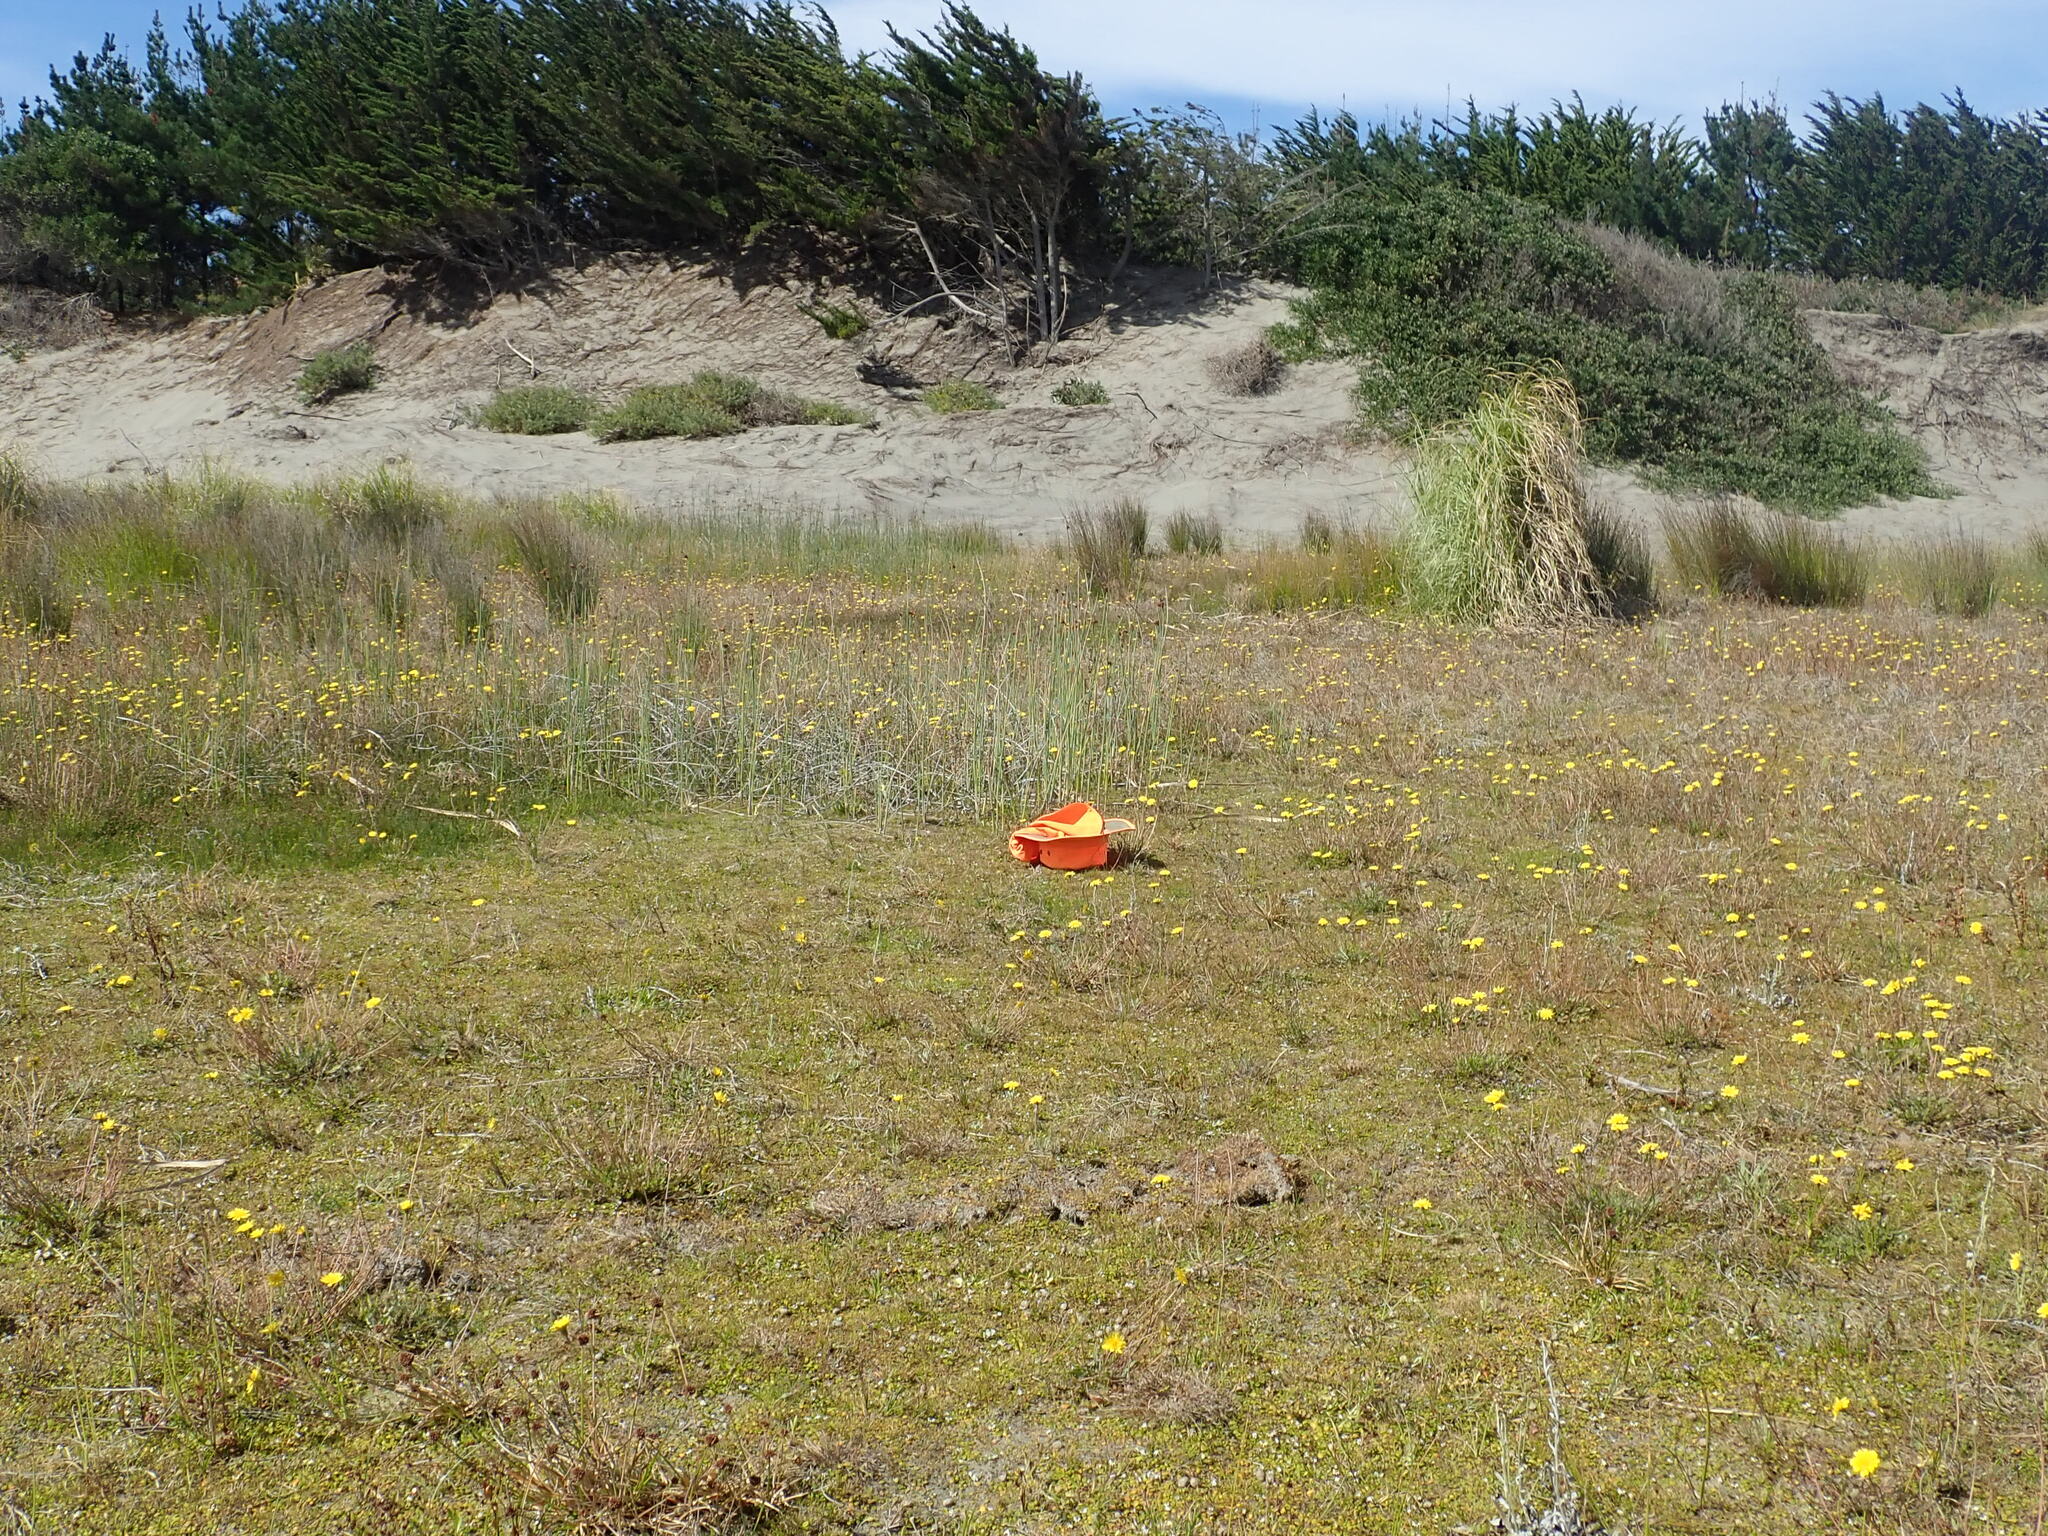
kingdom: Plantae
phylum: Tracheophyta
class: Liliopsida
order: Poales
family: Cyperaceae
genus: Eleocharis
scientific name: Eleocharis neozelandica
